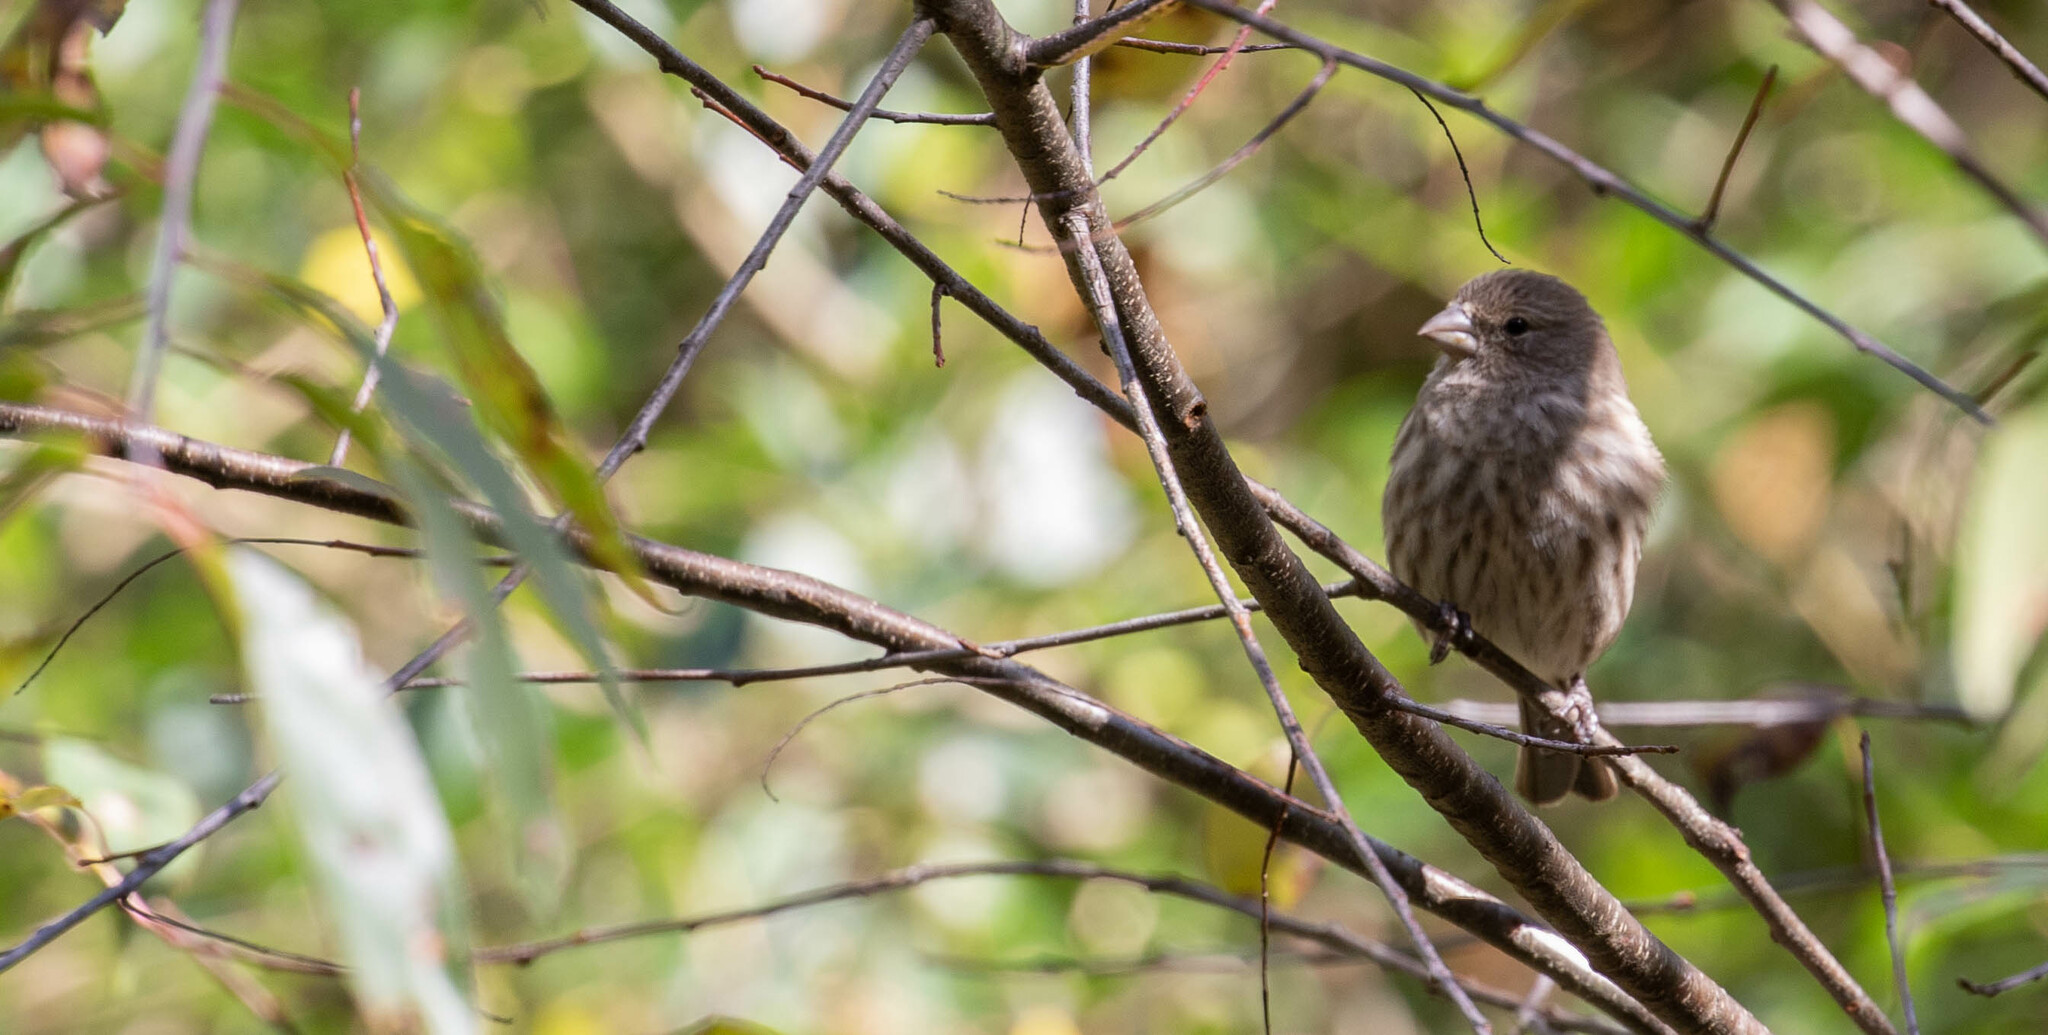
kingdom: Animalia
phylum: Chordata
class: Aves
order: Passeriformes
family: Fringillidae
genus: Haemorhous
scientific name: Haemorhous mexicanus
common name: House finch
